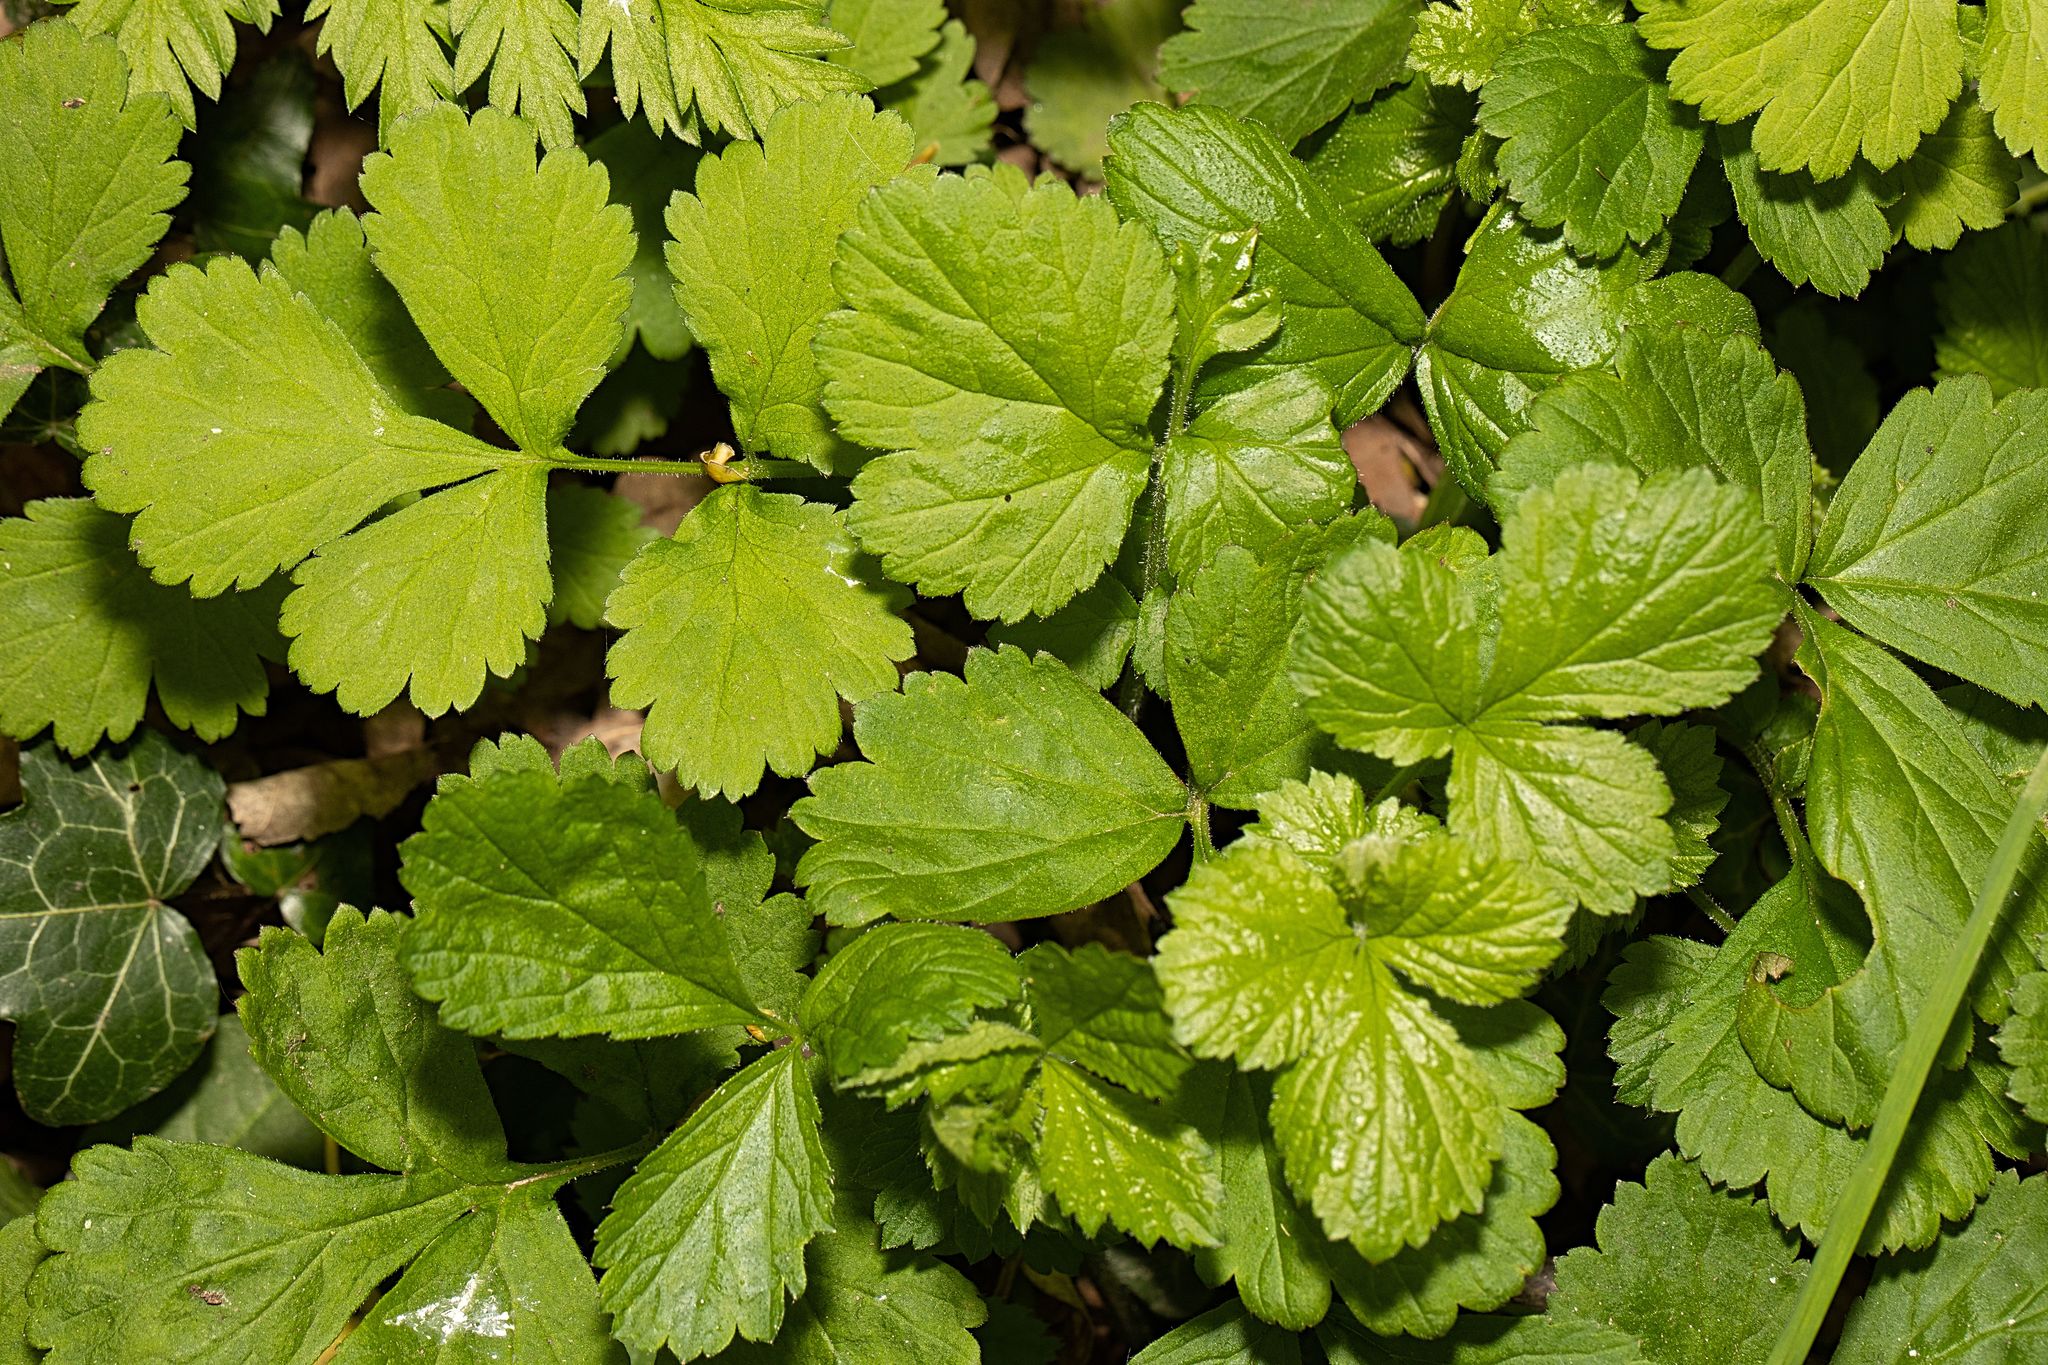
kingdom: Plantae
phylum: Tracheophyta
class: Magnoliopsida
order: Rosales
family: Rosaceae
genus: Geum
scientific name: Geum urbanum
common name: Wood avens
